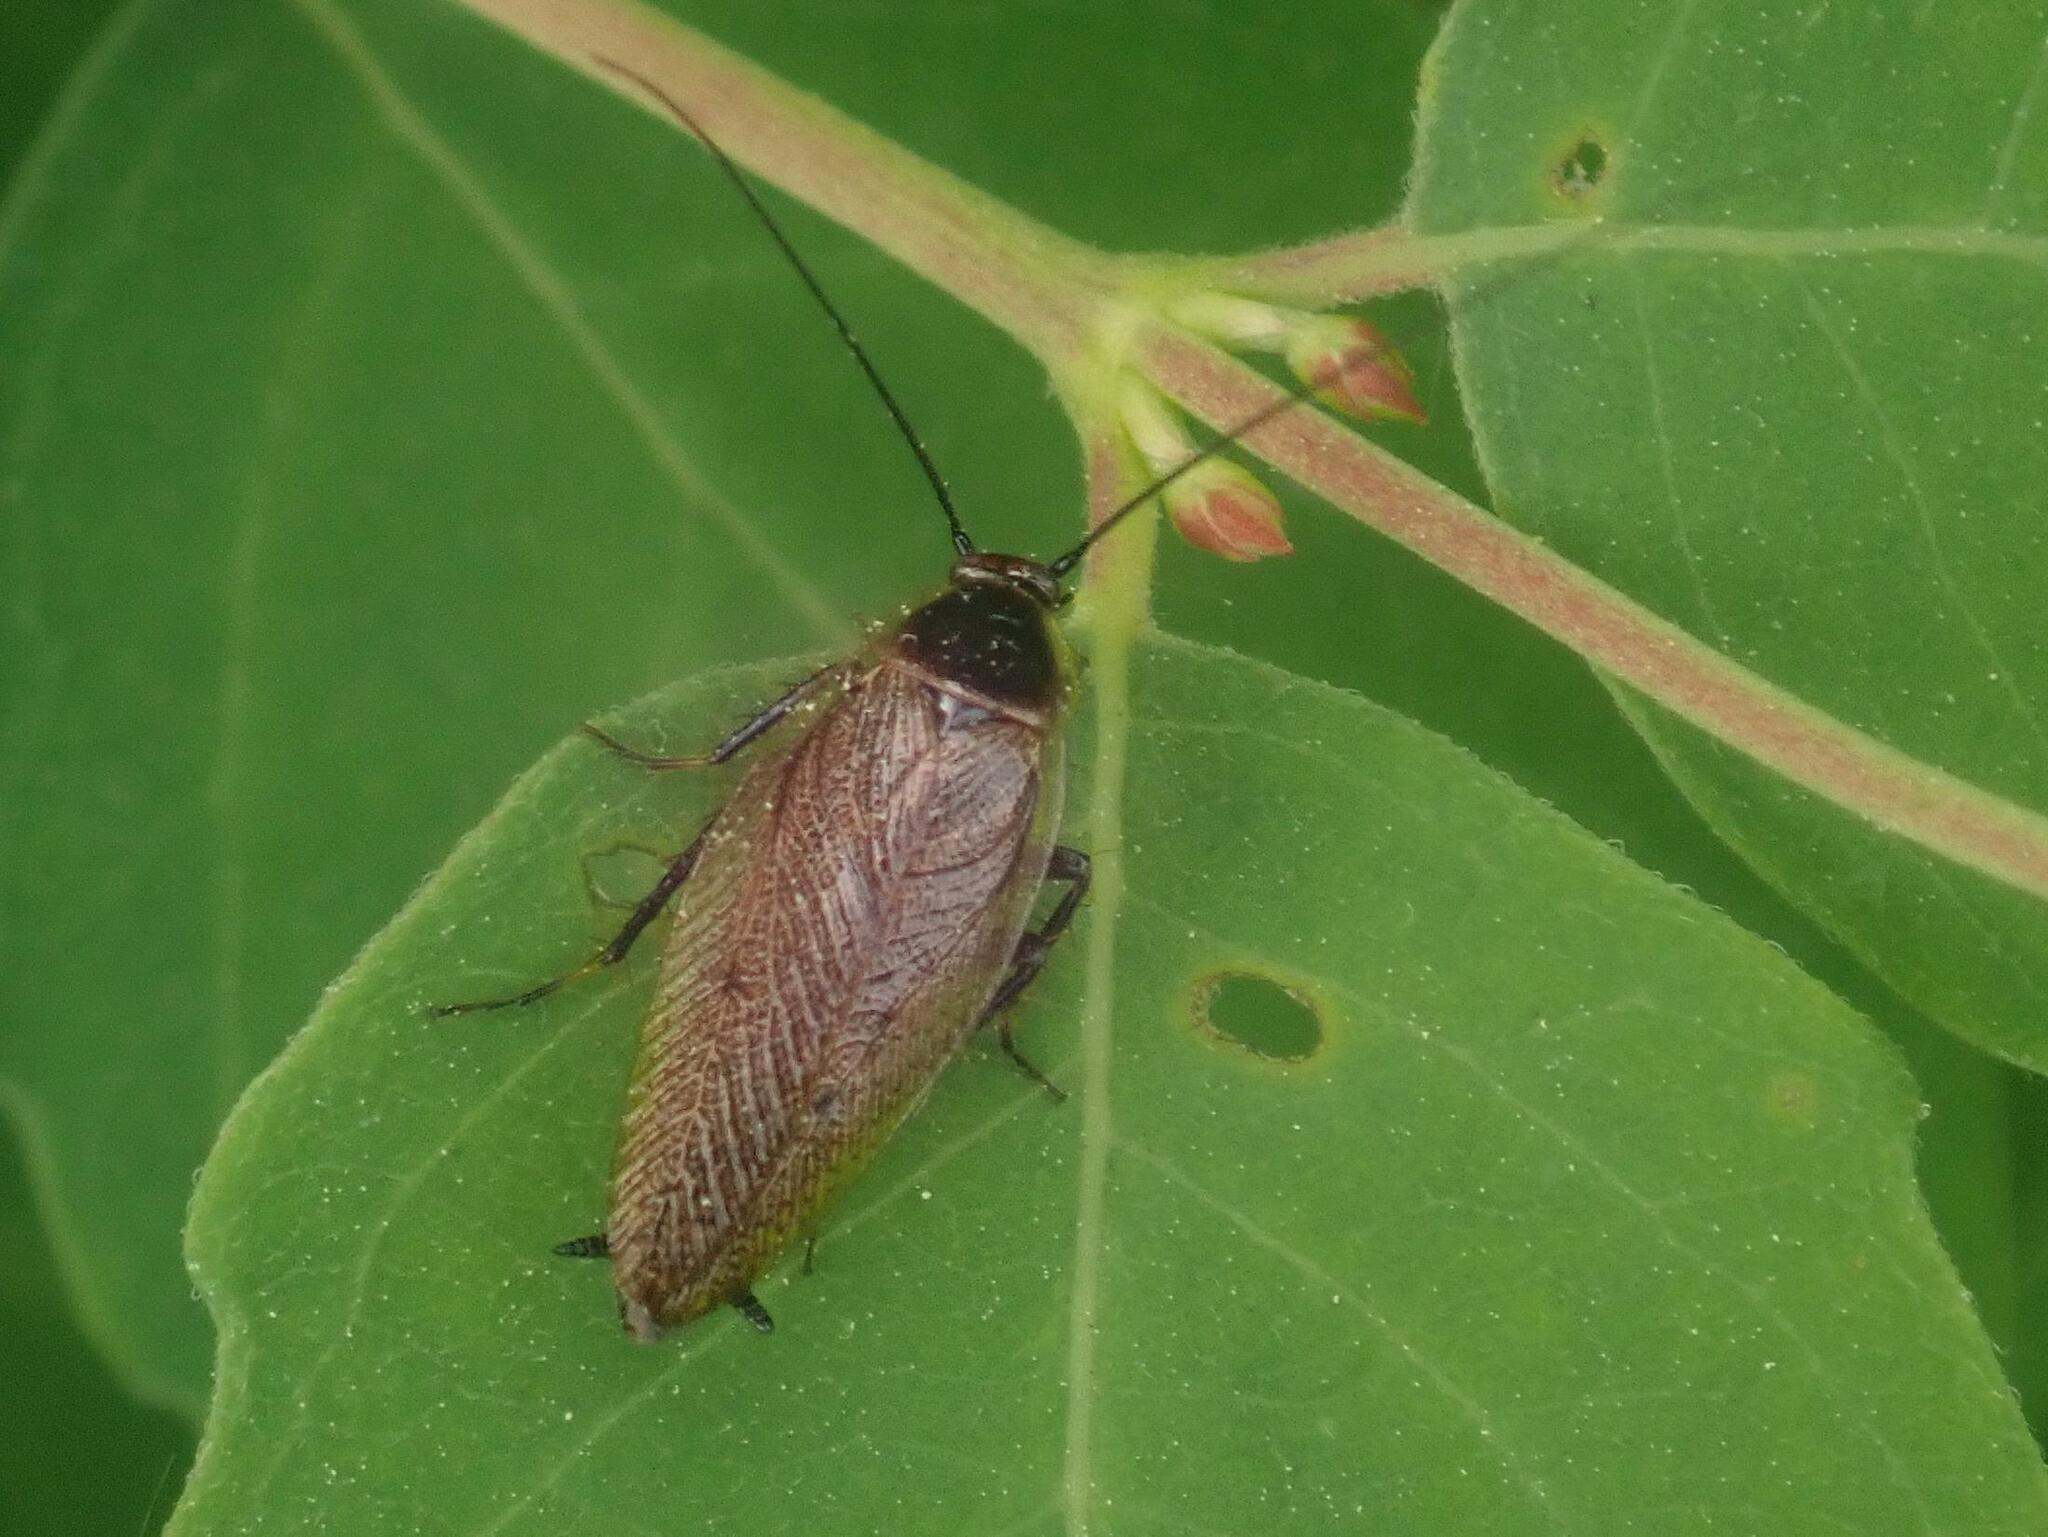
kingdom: Animalia
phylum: Arthropoda
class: Insecta
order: Blattodea
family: Ectobiidae
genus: Ectobius
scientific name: Ectobius lapponicus
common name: Dusky cockroach
